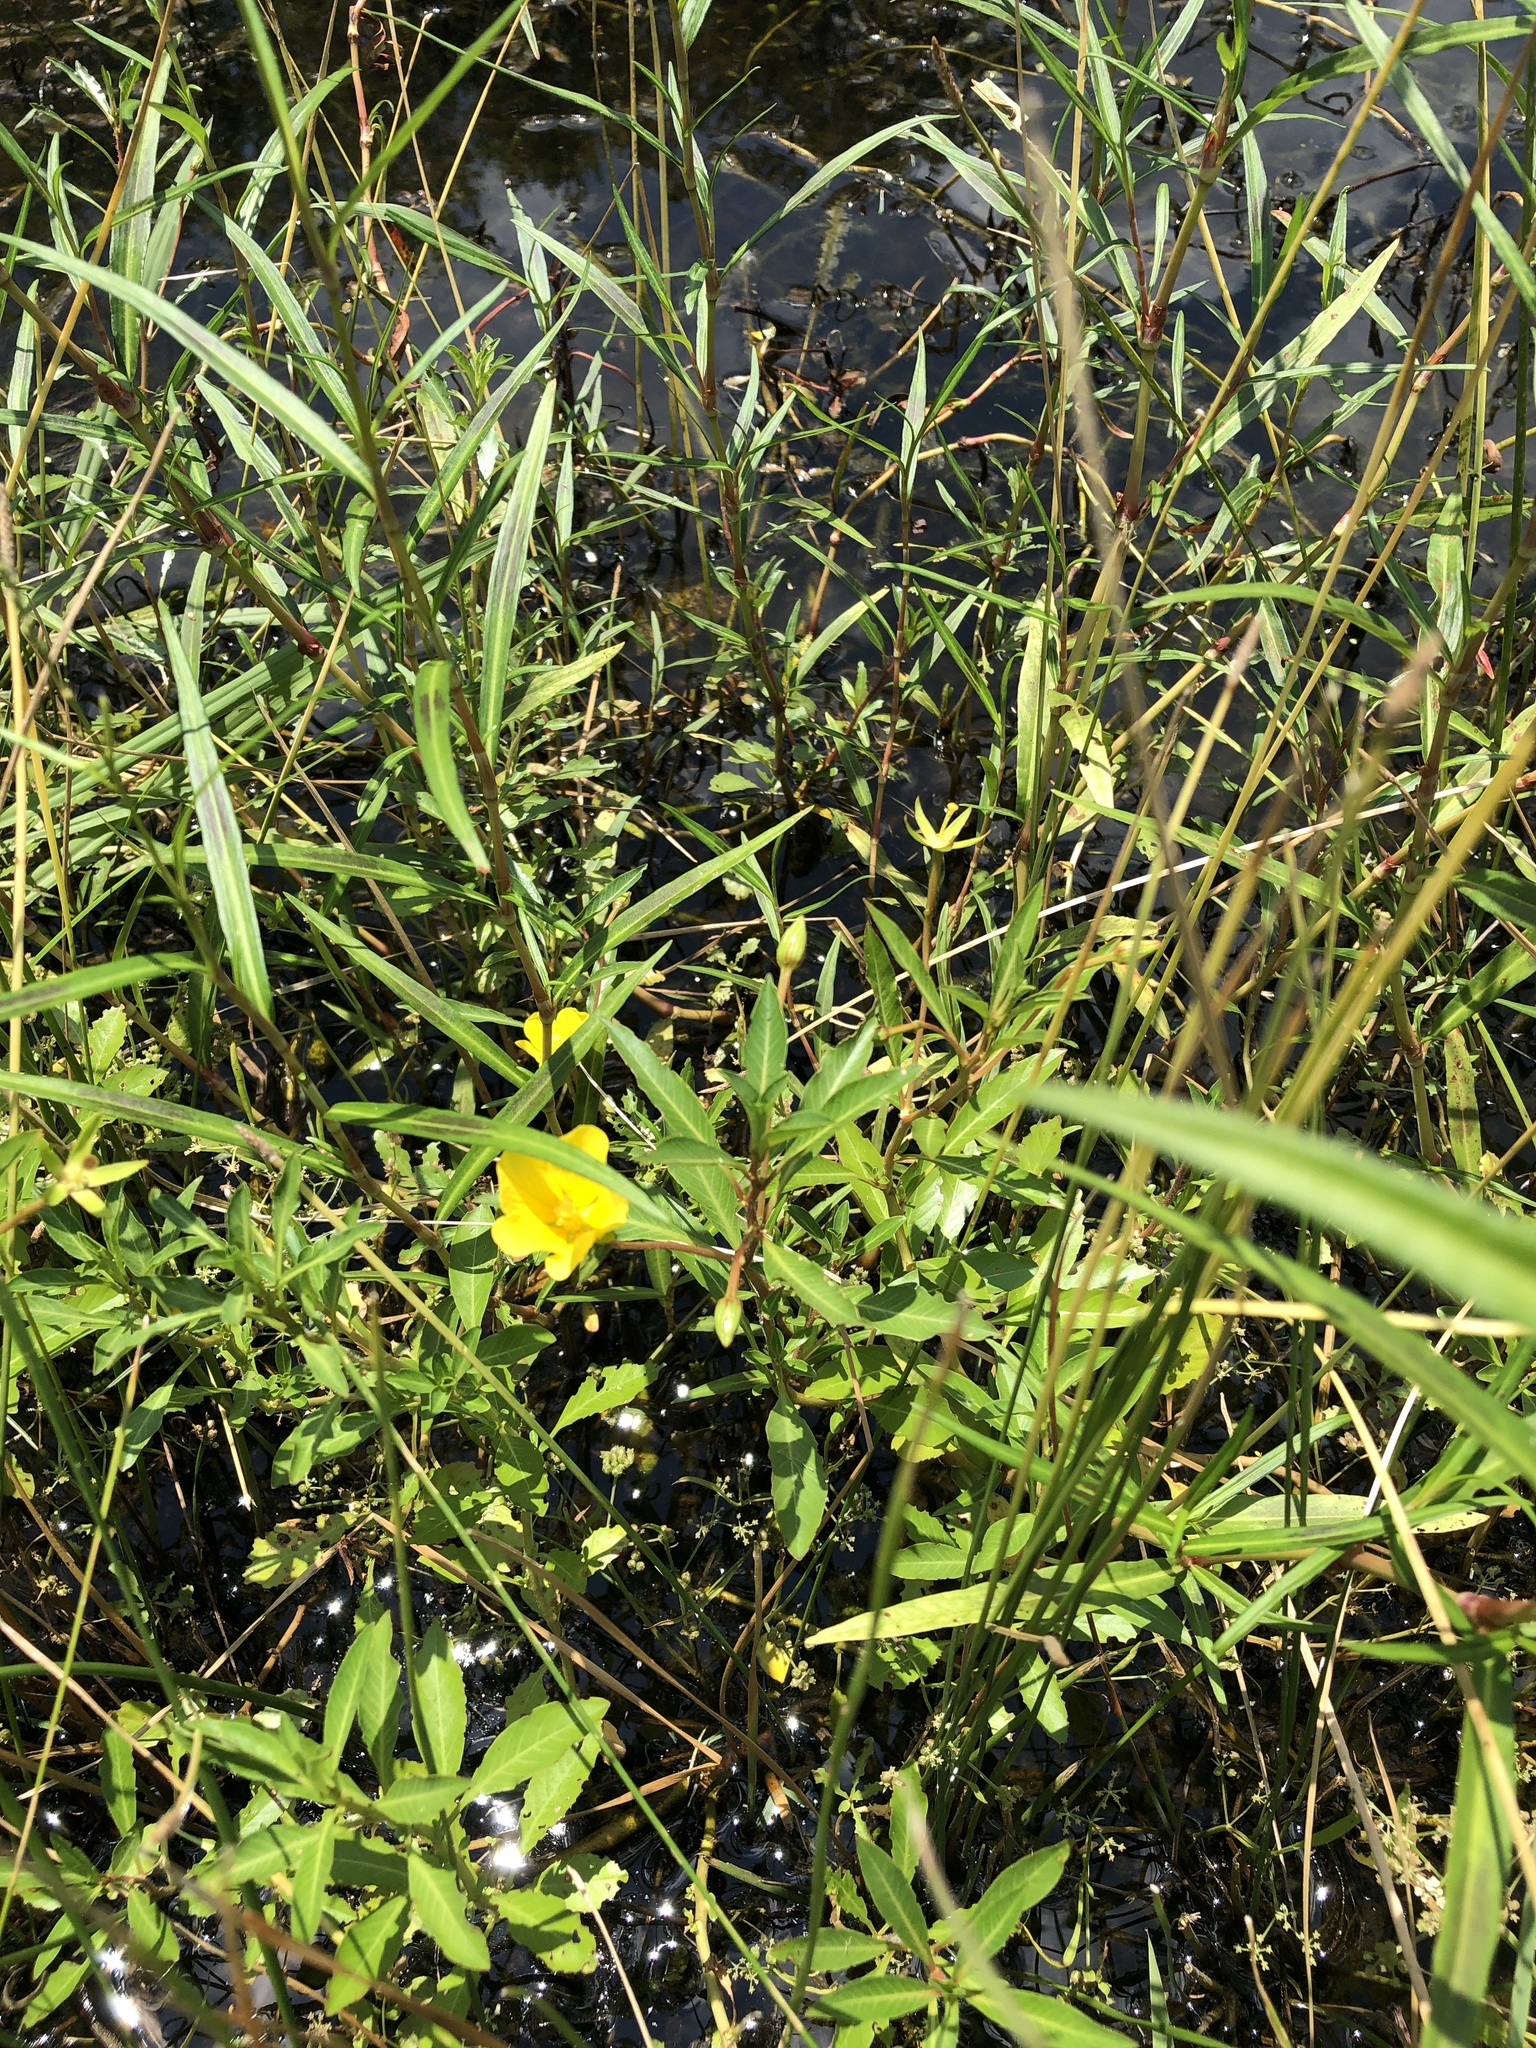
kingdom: Plantae
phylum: Tracheophyta
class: Magnoliopsida
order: Myrtales
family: Onagraceae
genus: Ludwigia
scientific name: Ludwigia peploides
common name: Floating primrose-willow
